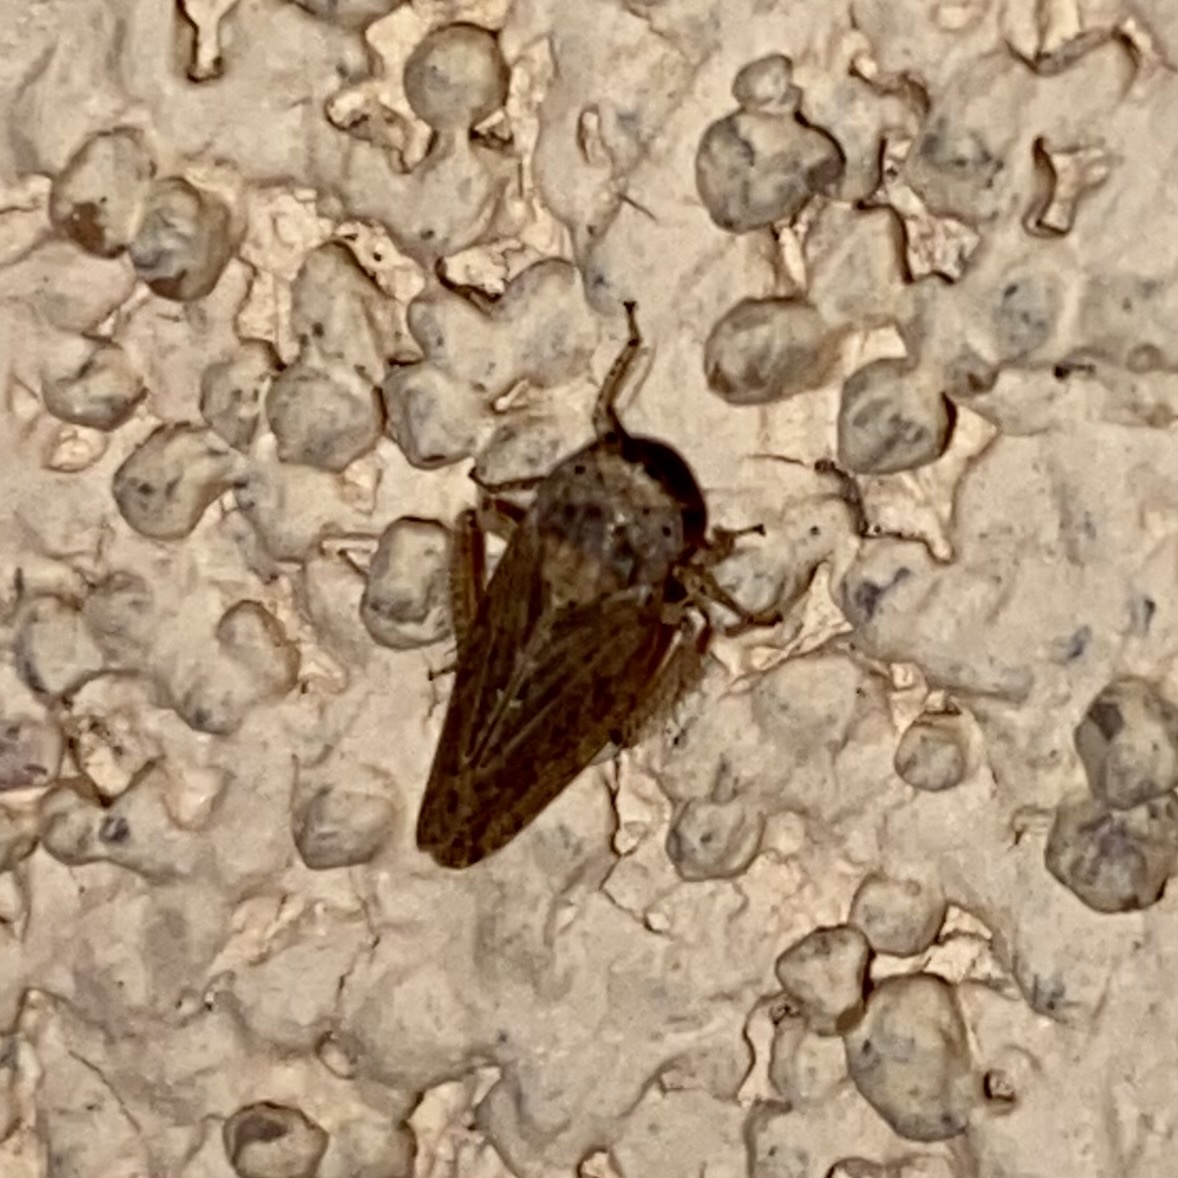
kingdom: Animalia
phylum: Arthropoda
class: Insecta
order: Hemiptera
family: Cicadellidae
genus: Paraphlepsius
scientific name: Paraphlepsius
